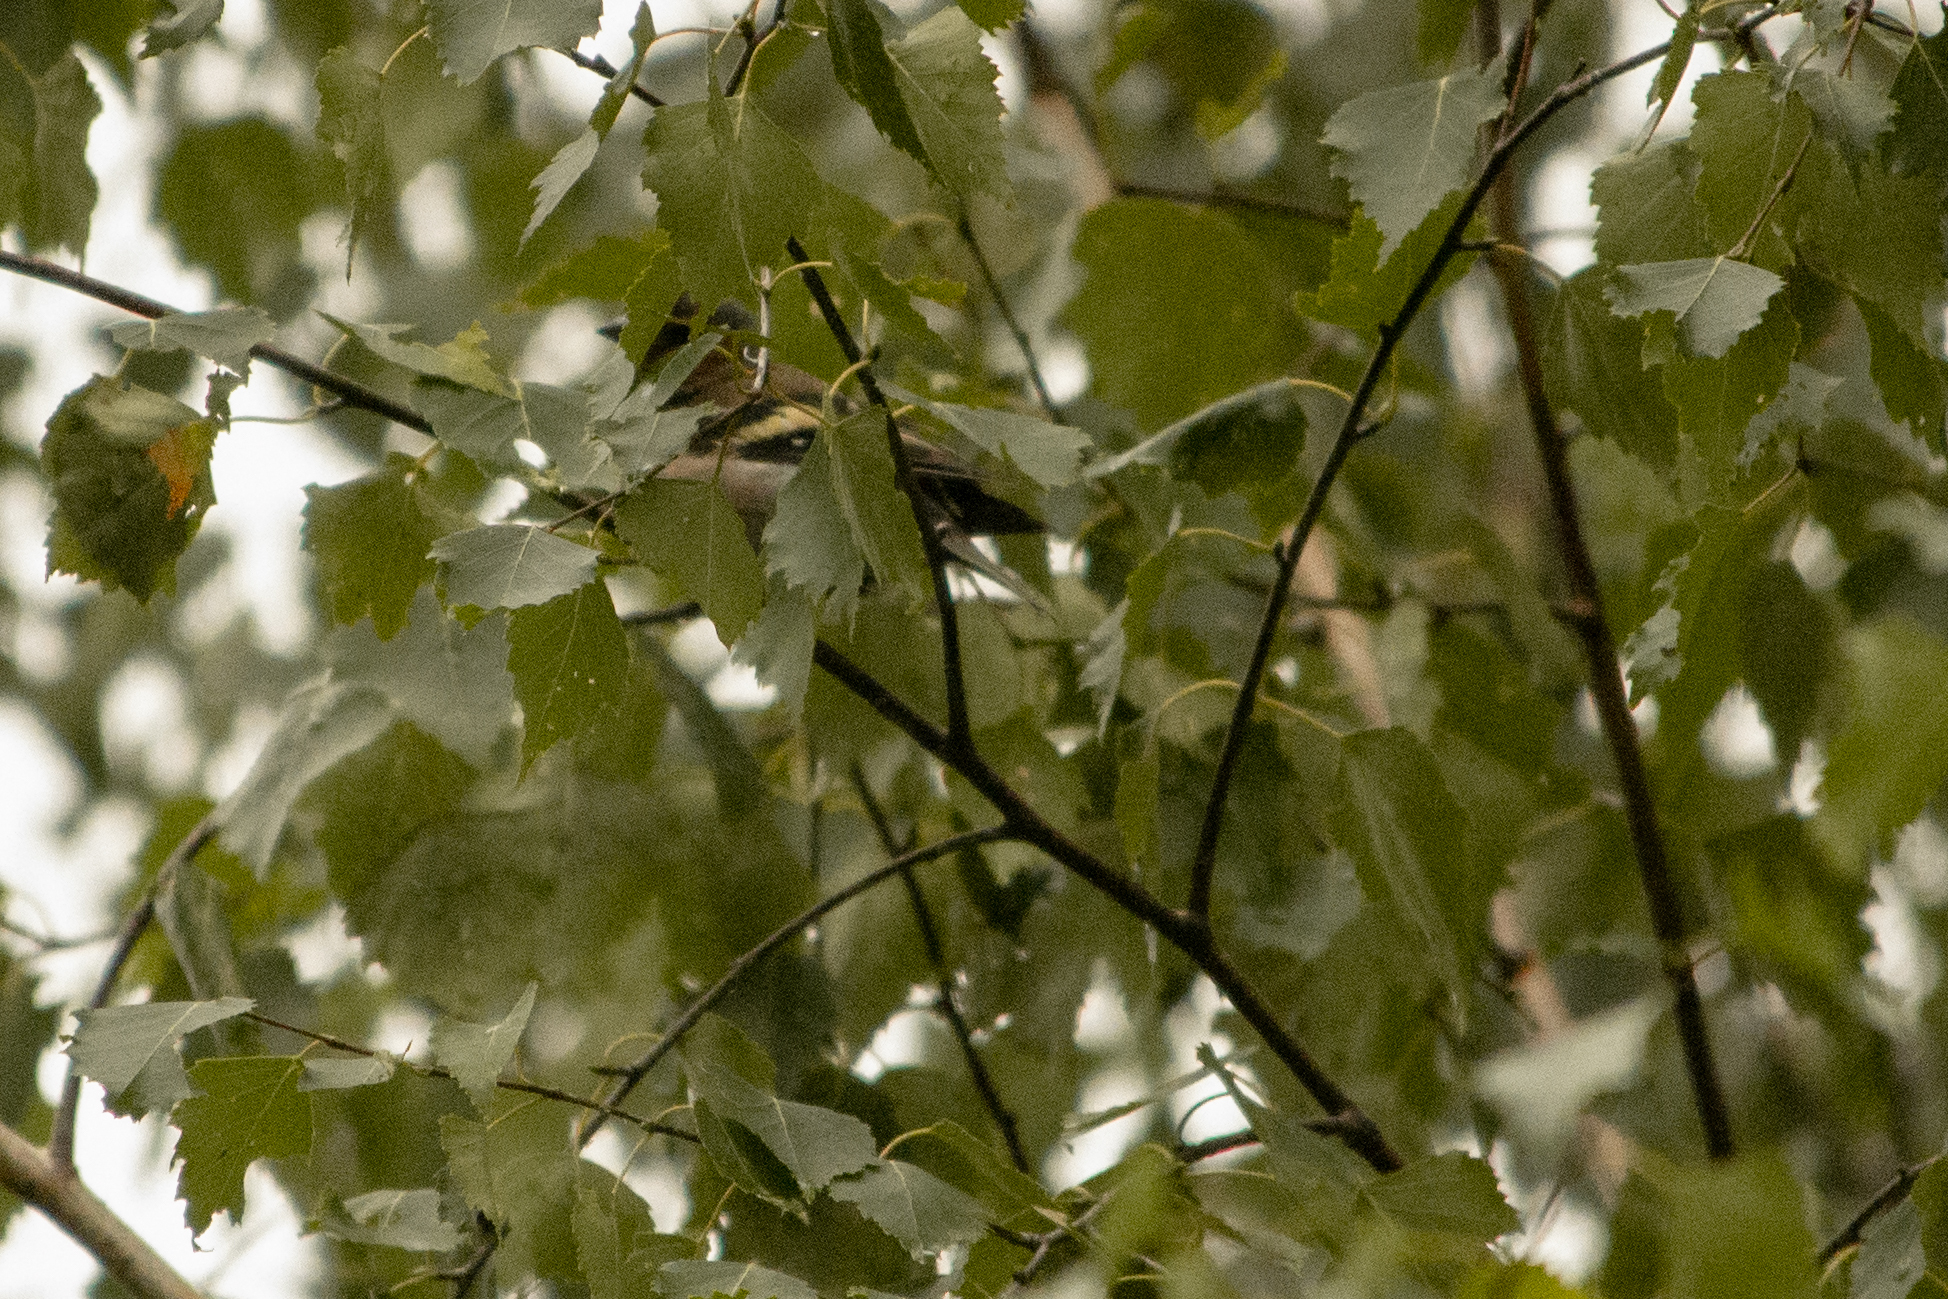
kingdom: Animalia
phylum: Chordata
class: Aves
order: Passeriformes
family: Fringillidae
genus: Fringilla
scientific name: Fringilla coelebs
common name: Common chaffinch
